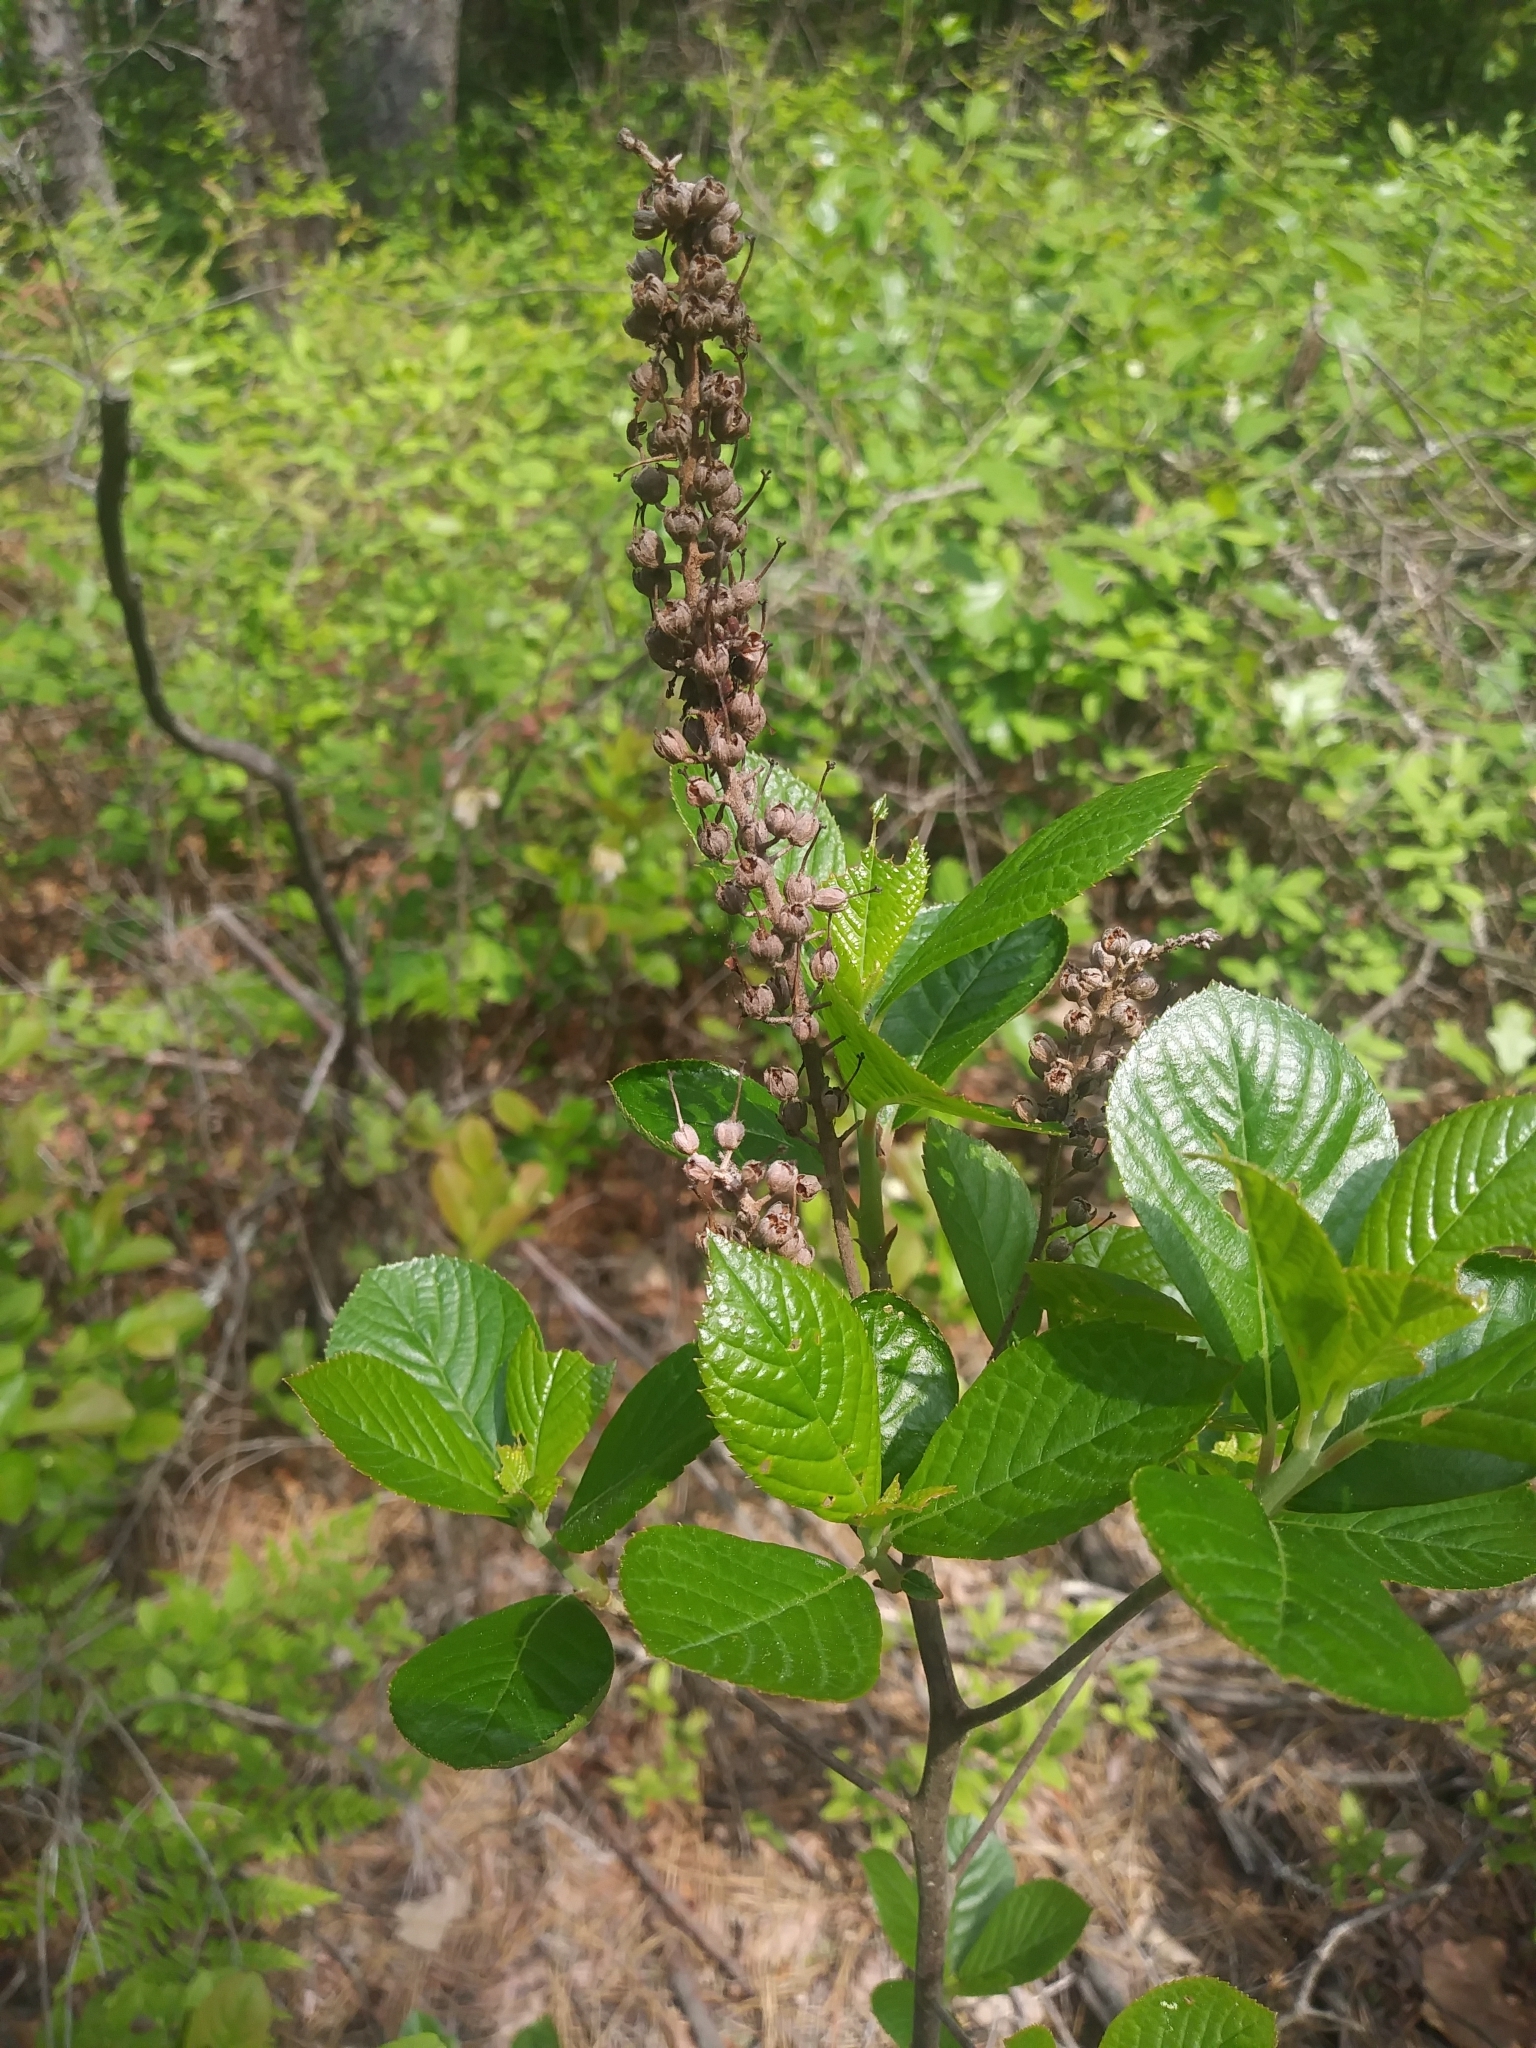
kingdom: Plantae
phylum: Tracheophyta
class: Magnoliopsida
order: Ericales
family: Clethraceae
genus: Clethra
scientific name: Clethra alnifolia
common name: Sweet pepperbush
